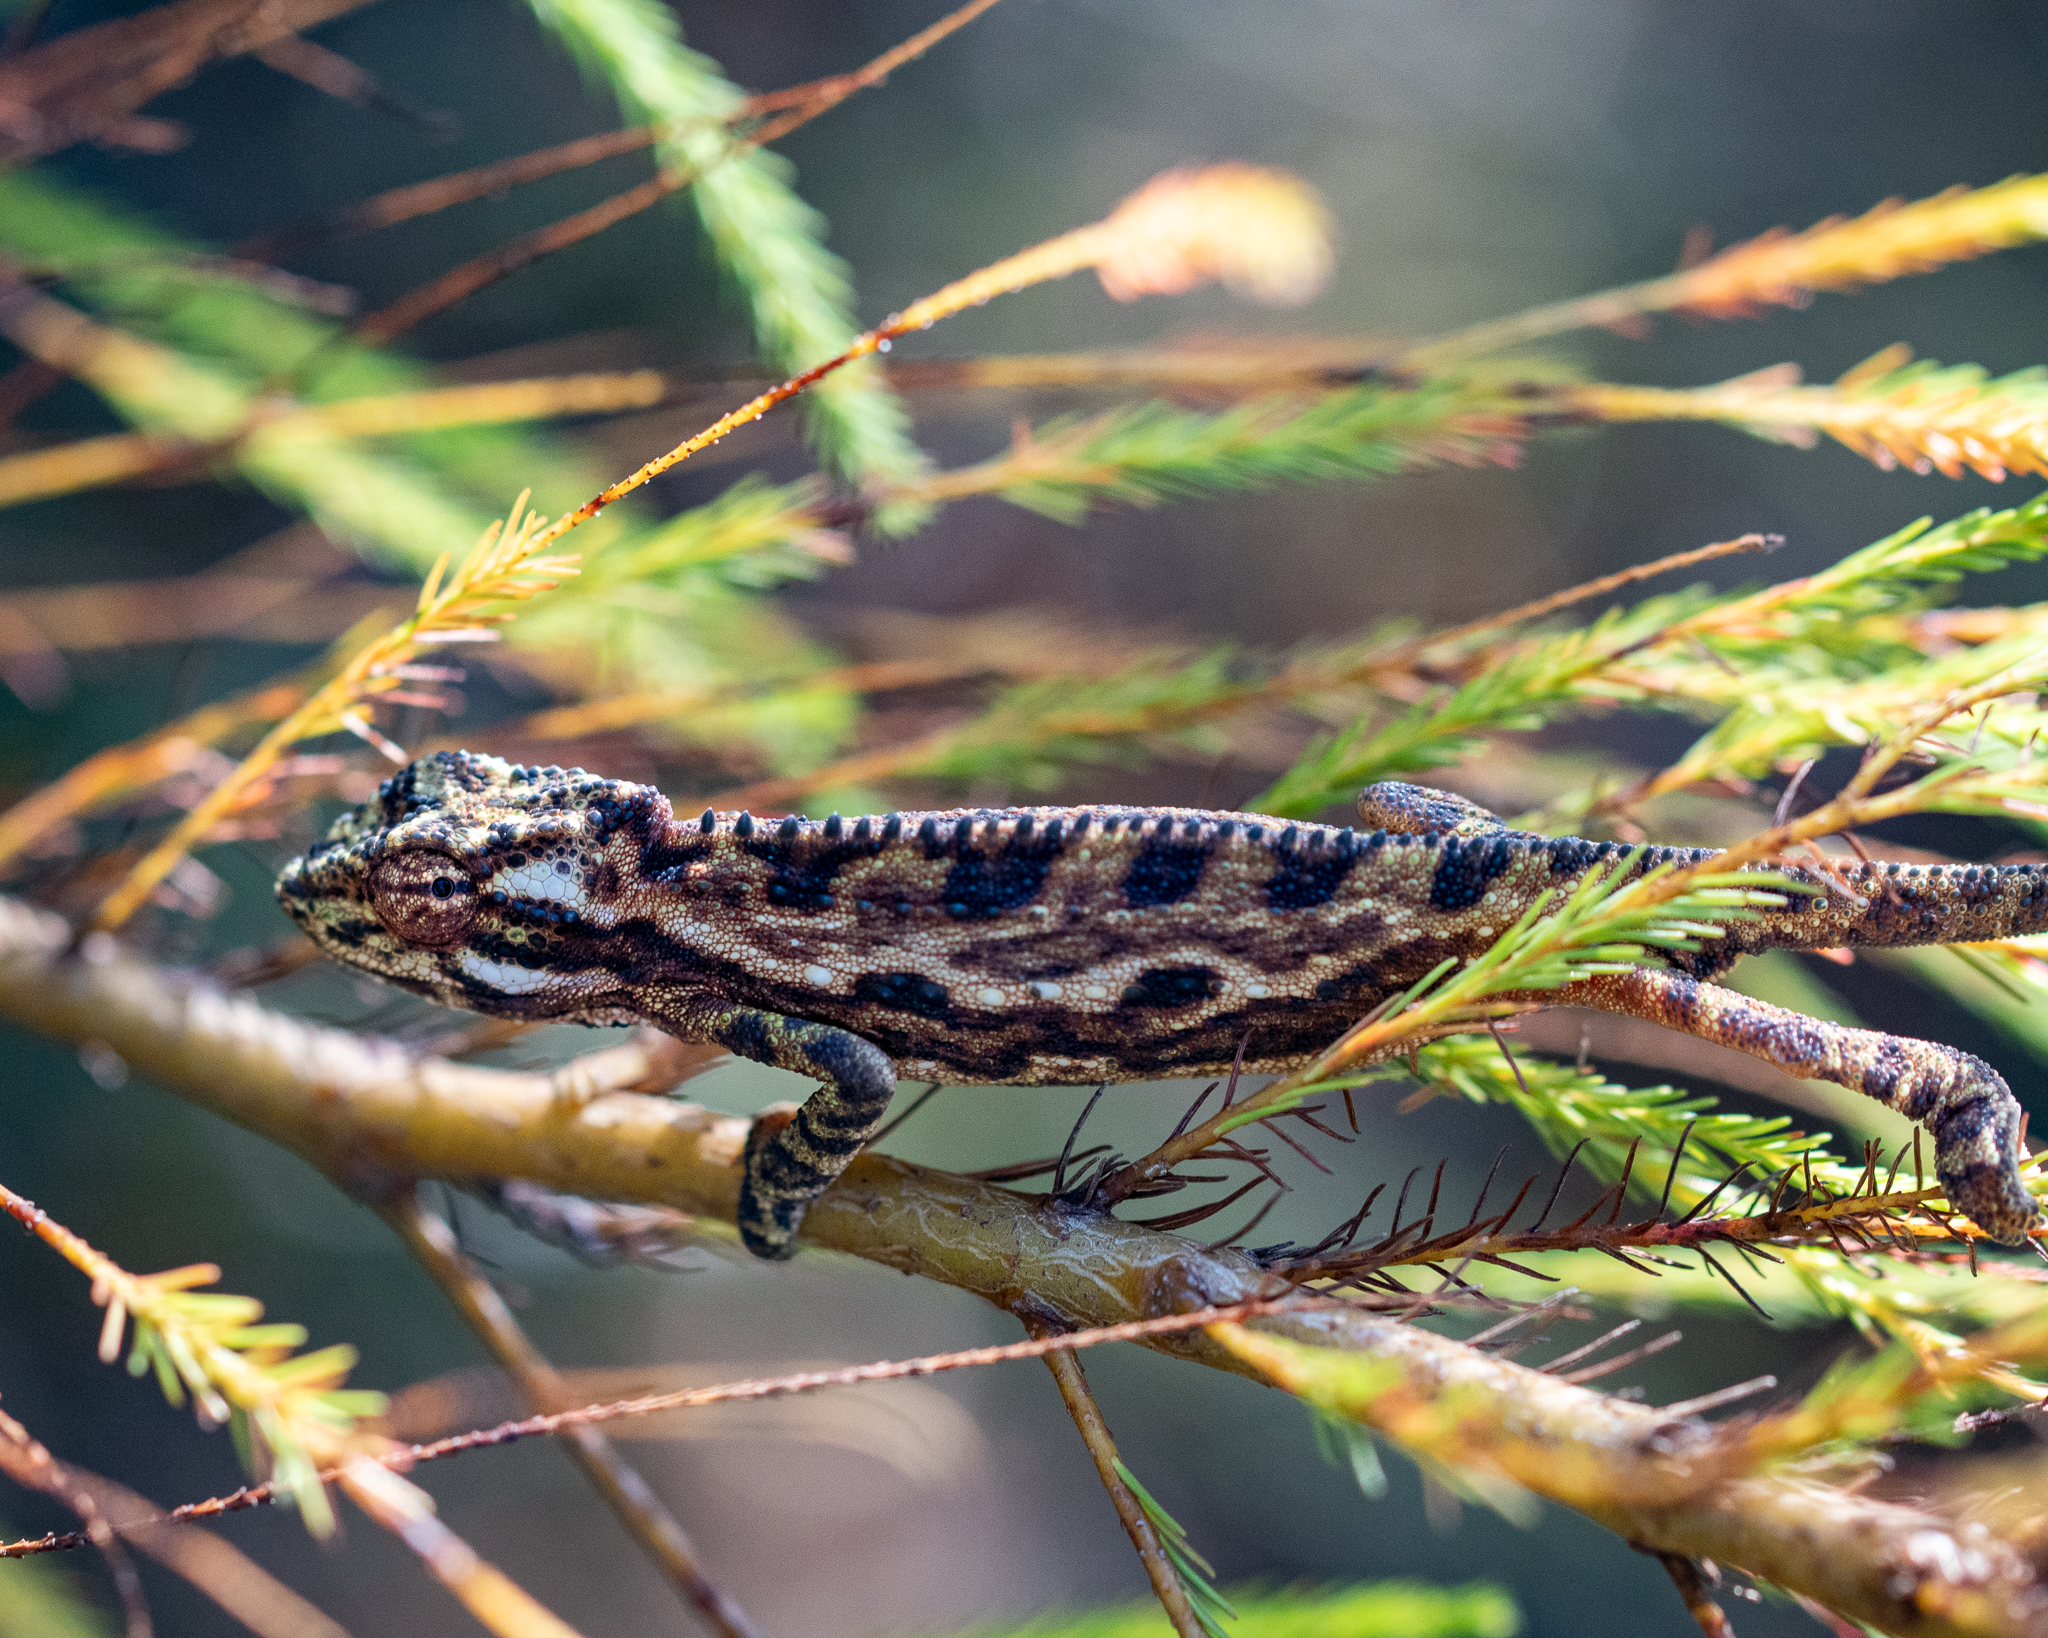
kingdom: Animalia
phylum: Chordata
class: Squamata
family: Chamaeleonidae
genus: Bradypodion
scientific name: Bradypodion pumilum
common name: Cape dwarf chameleon
